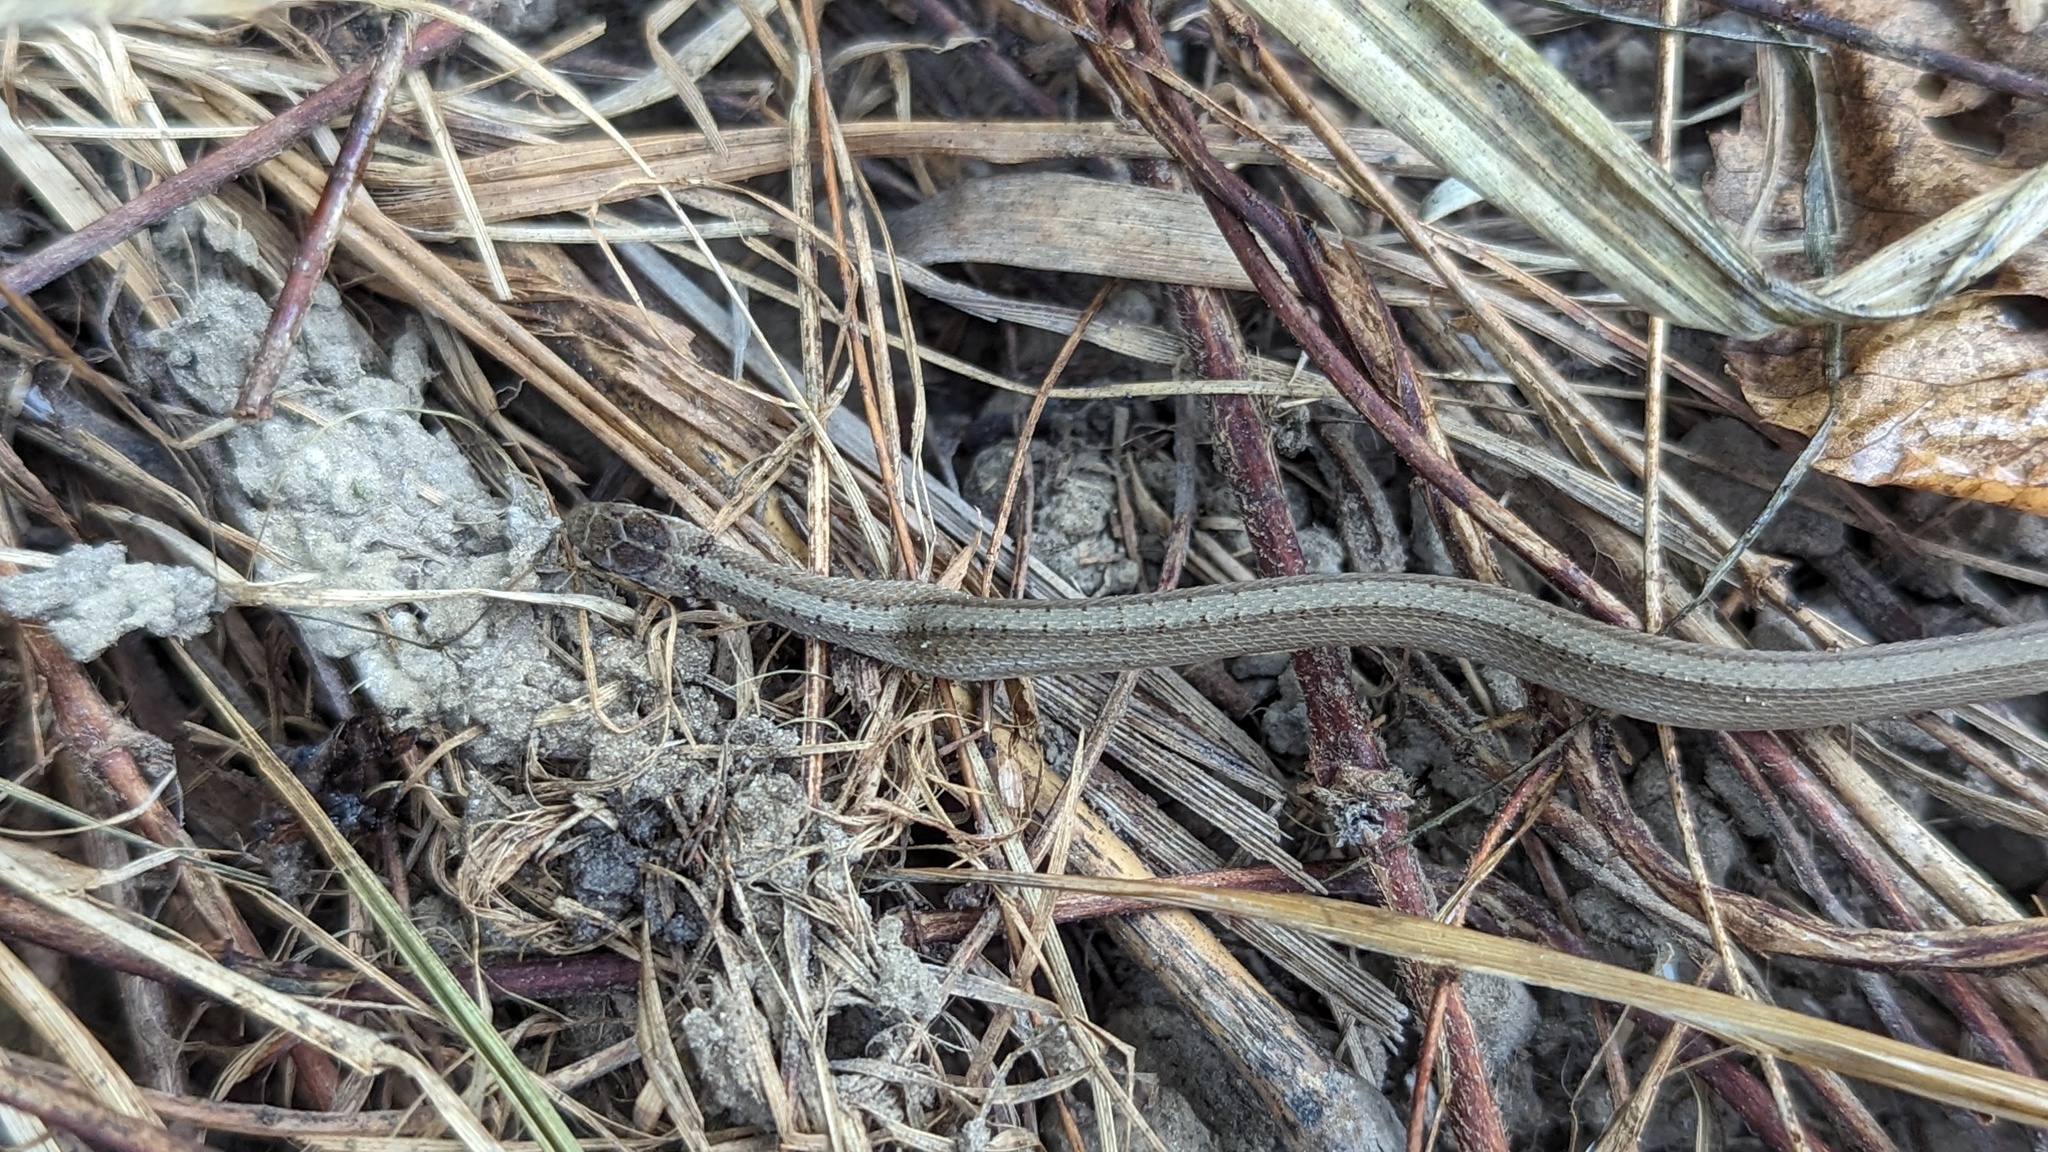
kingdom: Animalia
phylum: Chordata
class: Squamata
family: Colubridae
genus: Storeria
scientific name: Storeria dekayi
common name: (dekay’s) brown snake
